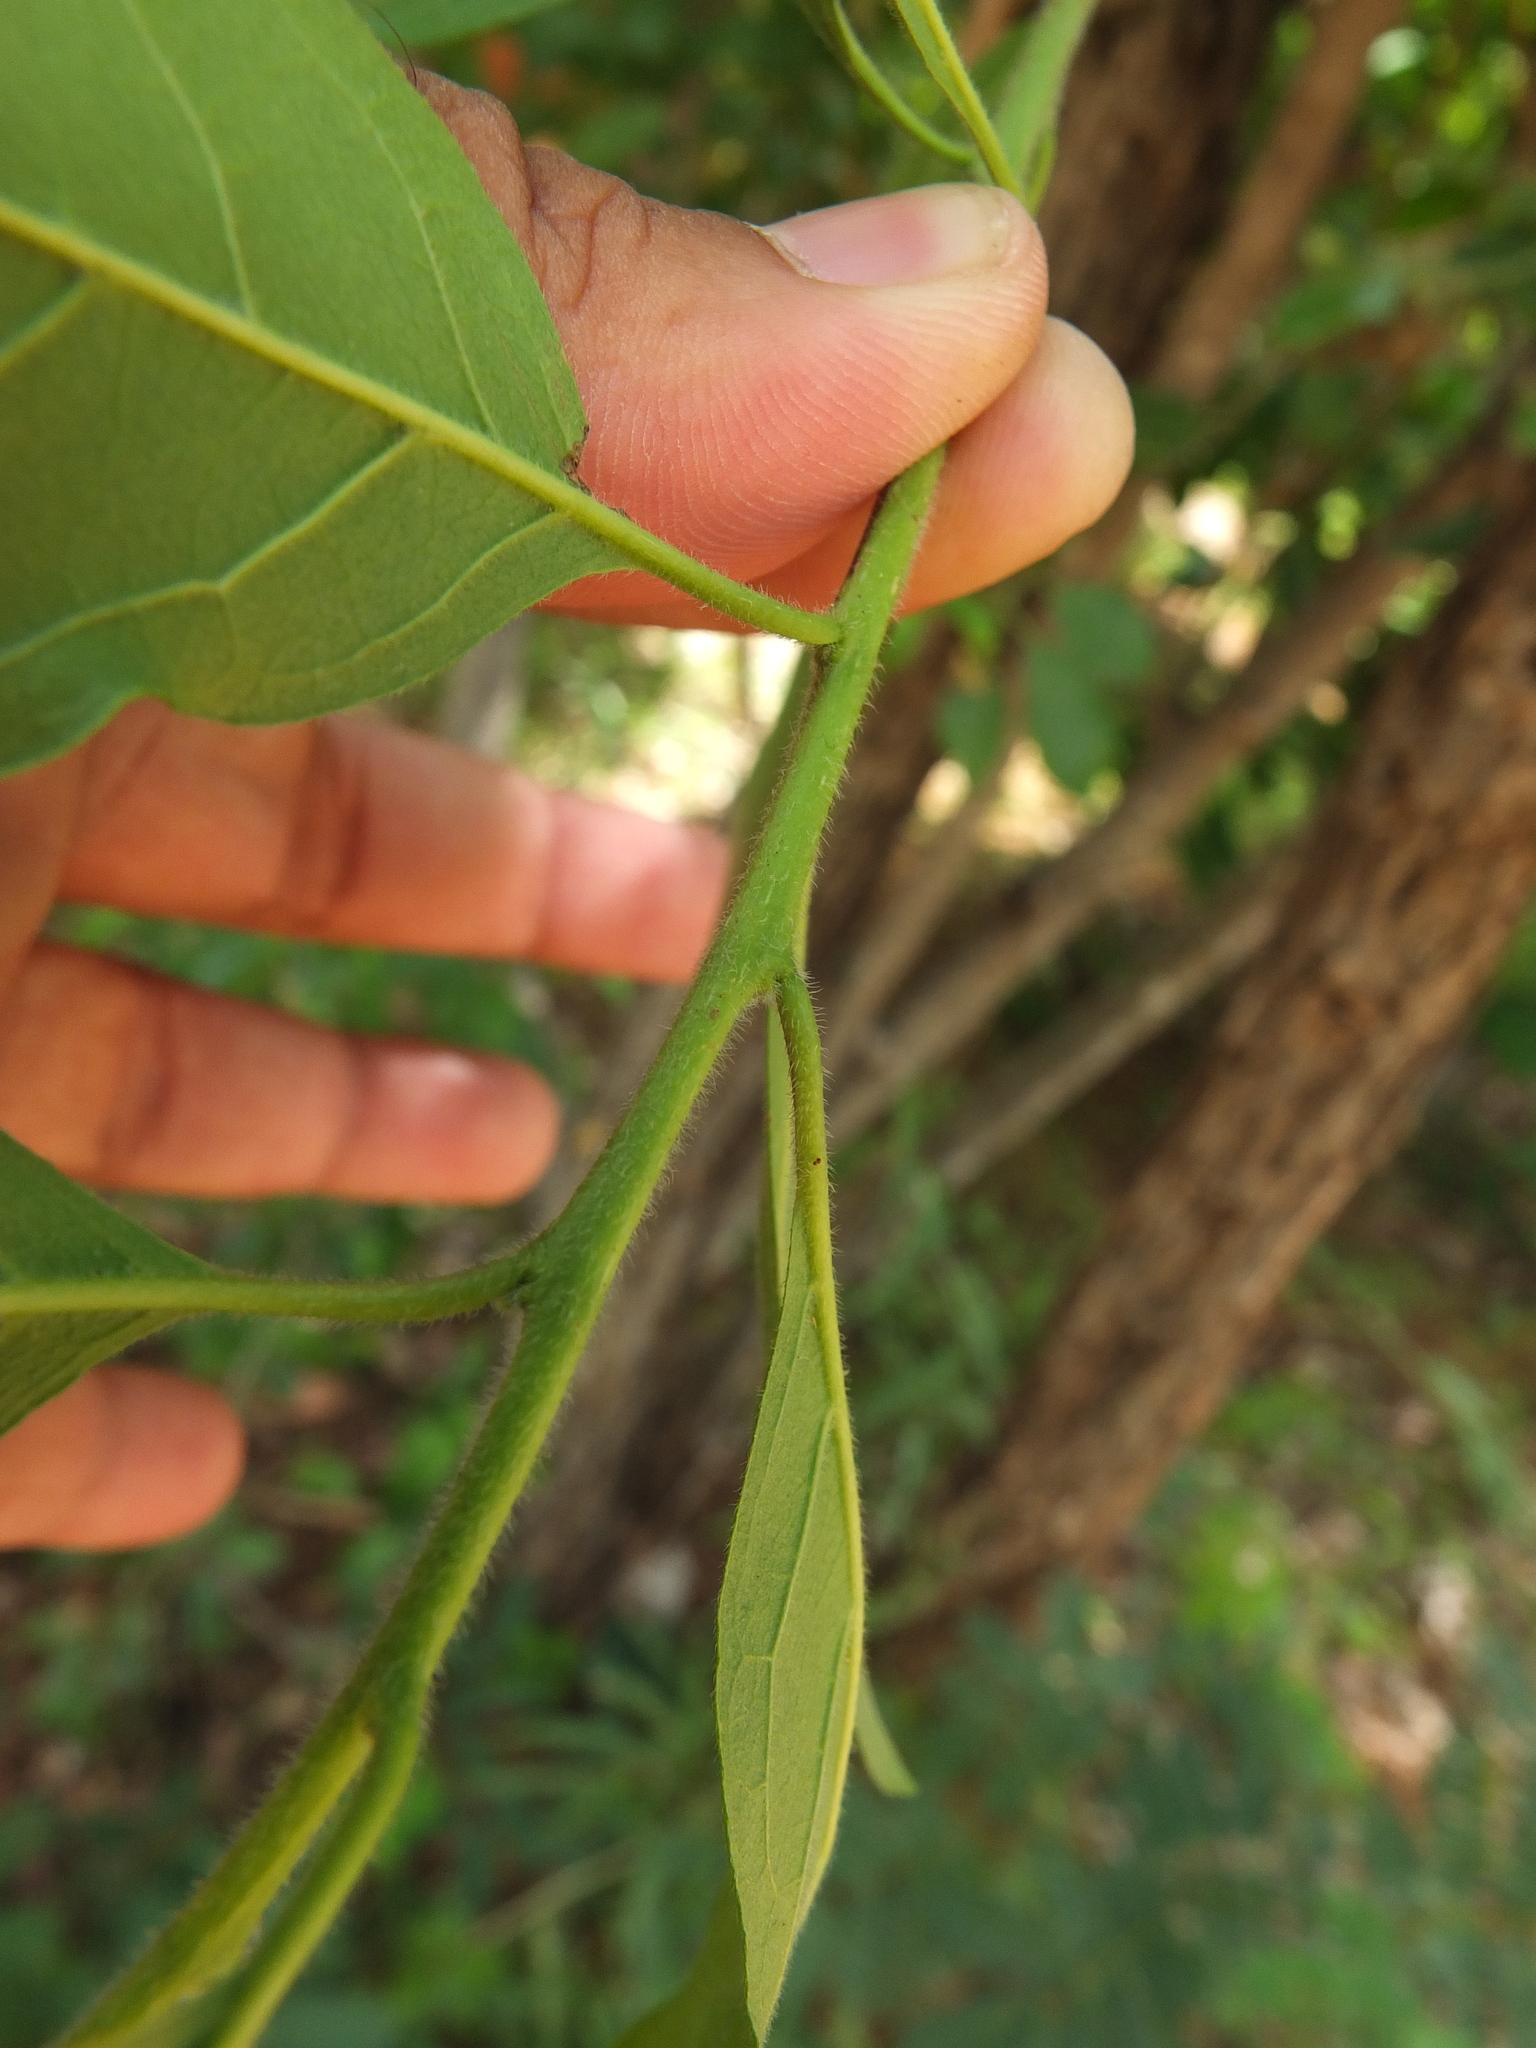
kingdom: Plantae
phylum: Tracheophyta
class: Magnoliopsida
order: Boraginales
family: Ehretiaceae
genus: Ehretia
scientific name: Ehretia laevis
